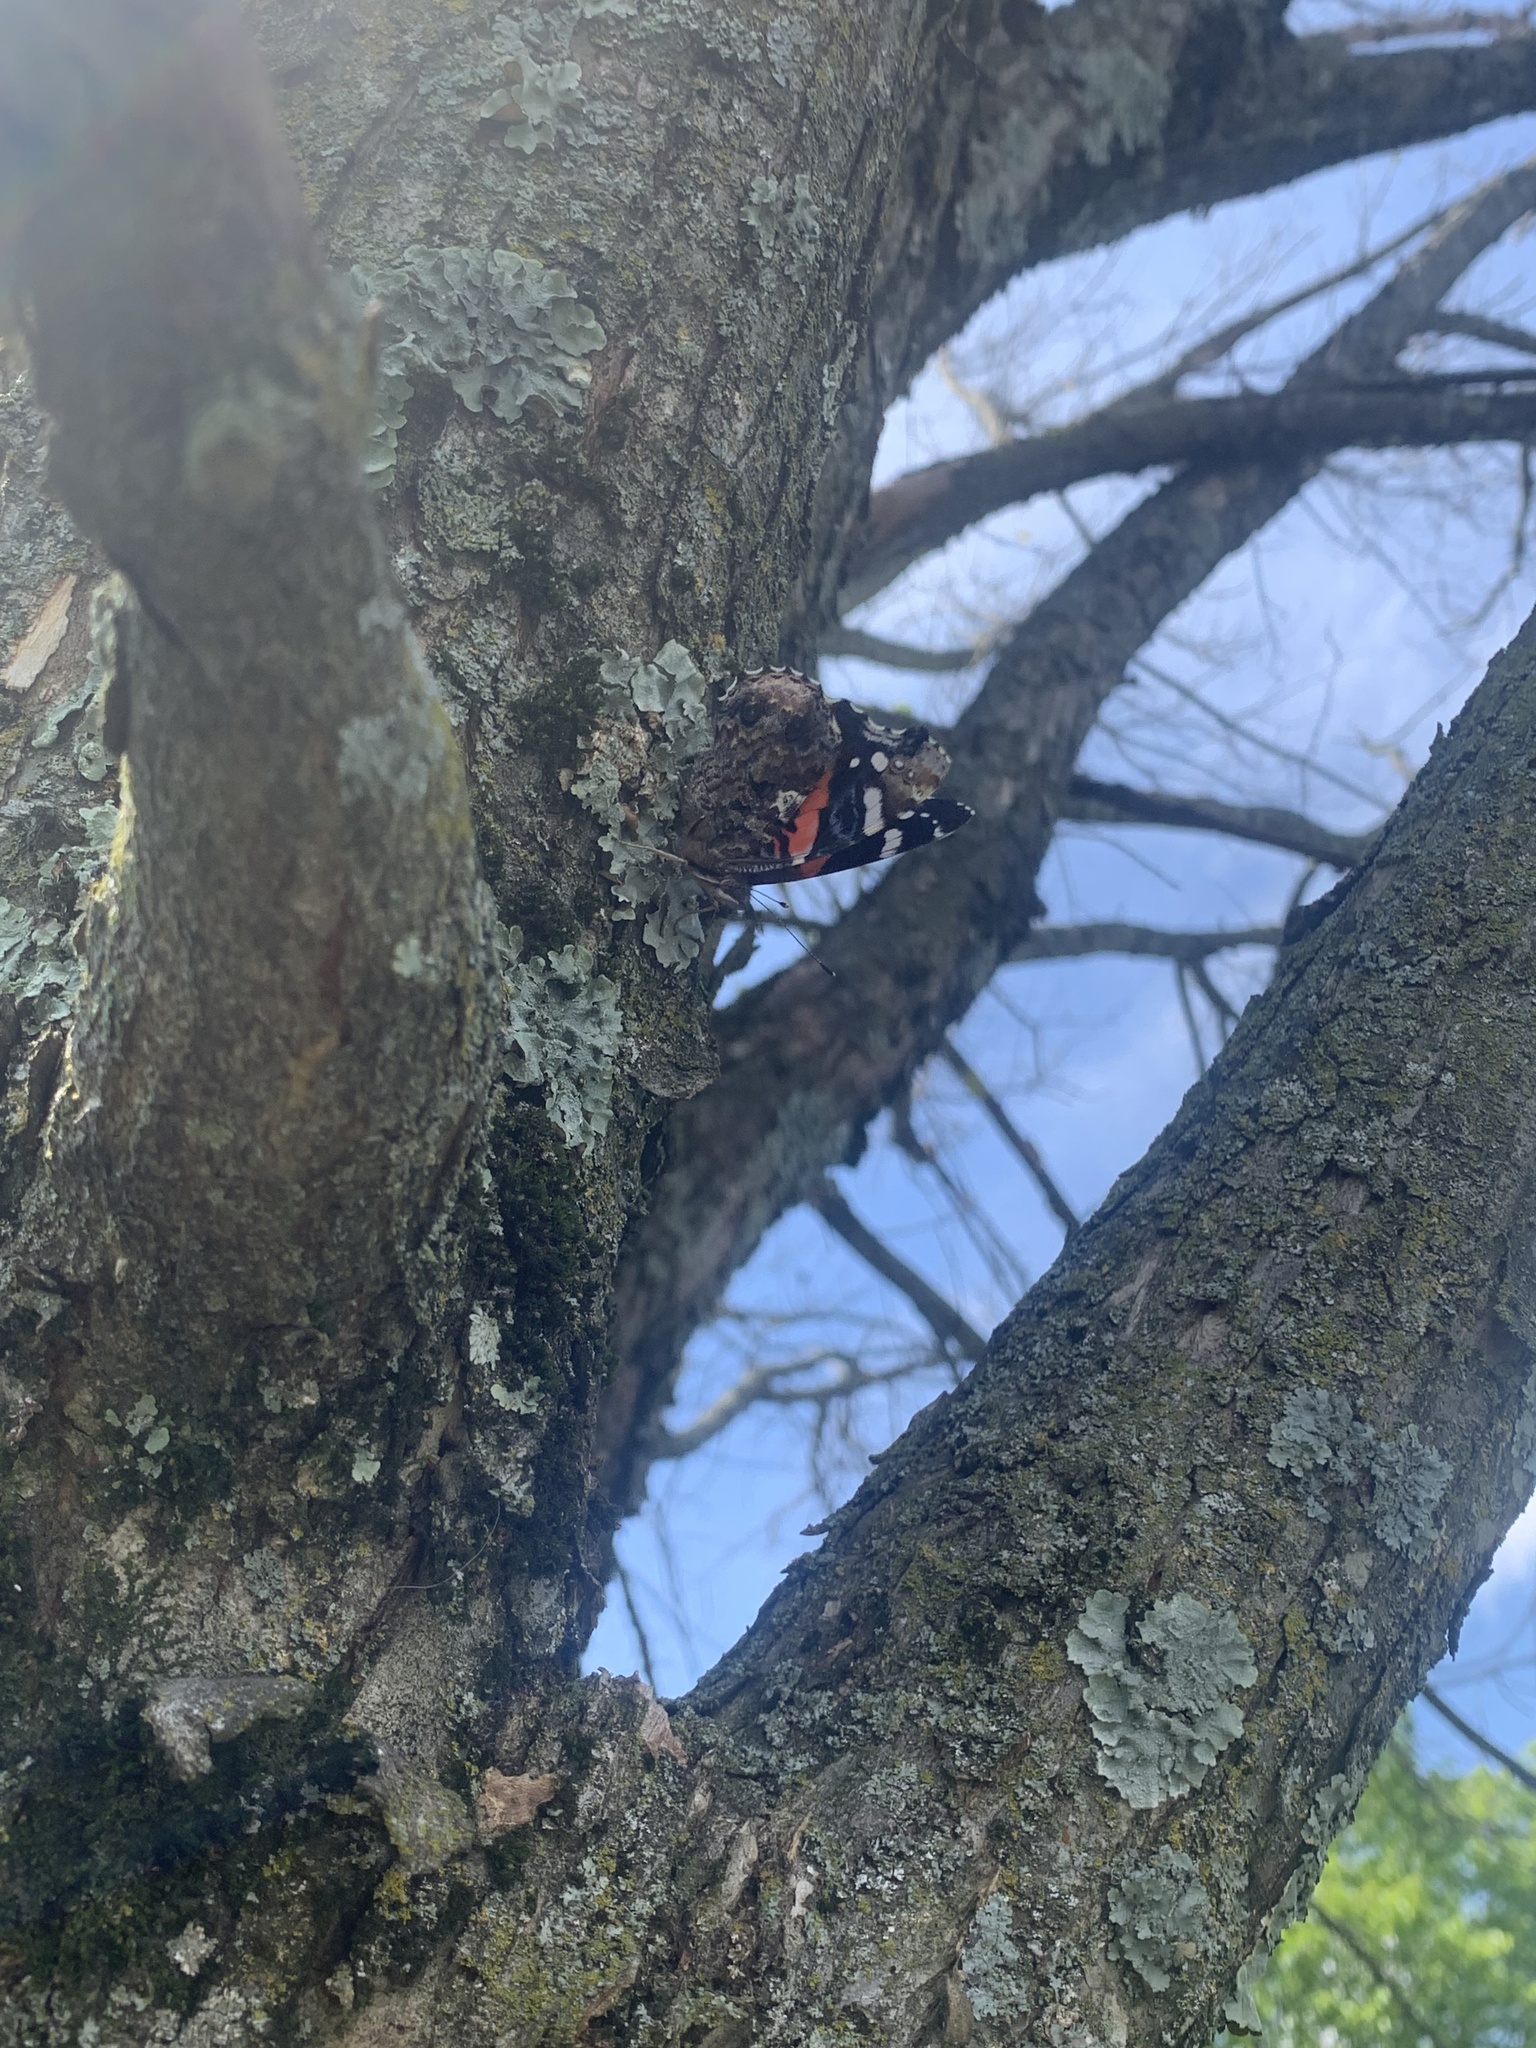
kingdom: Animalia
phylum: Arthropoda
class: Insecta
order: Lepidoptera
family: Nymphalidae
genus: Vanessa
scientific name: Vanessa atalanta
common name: Red admiral
